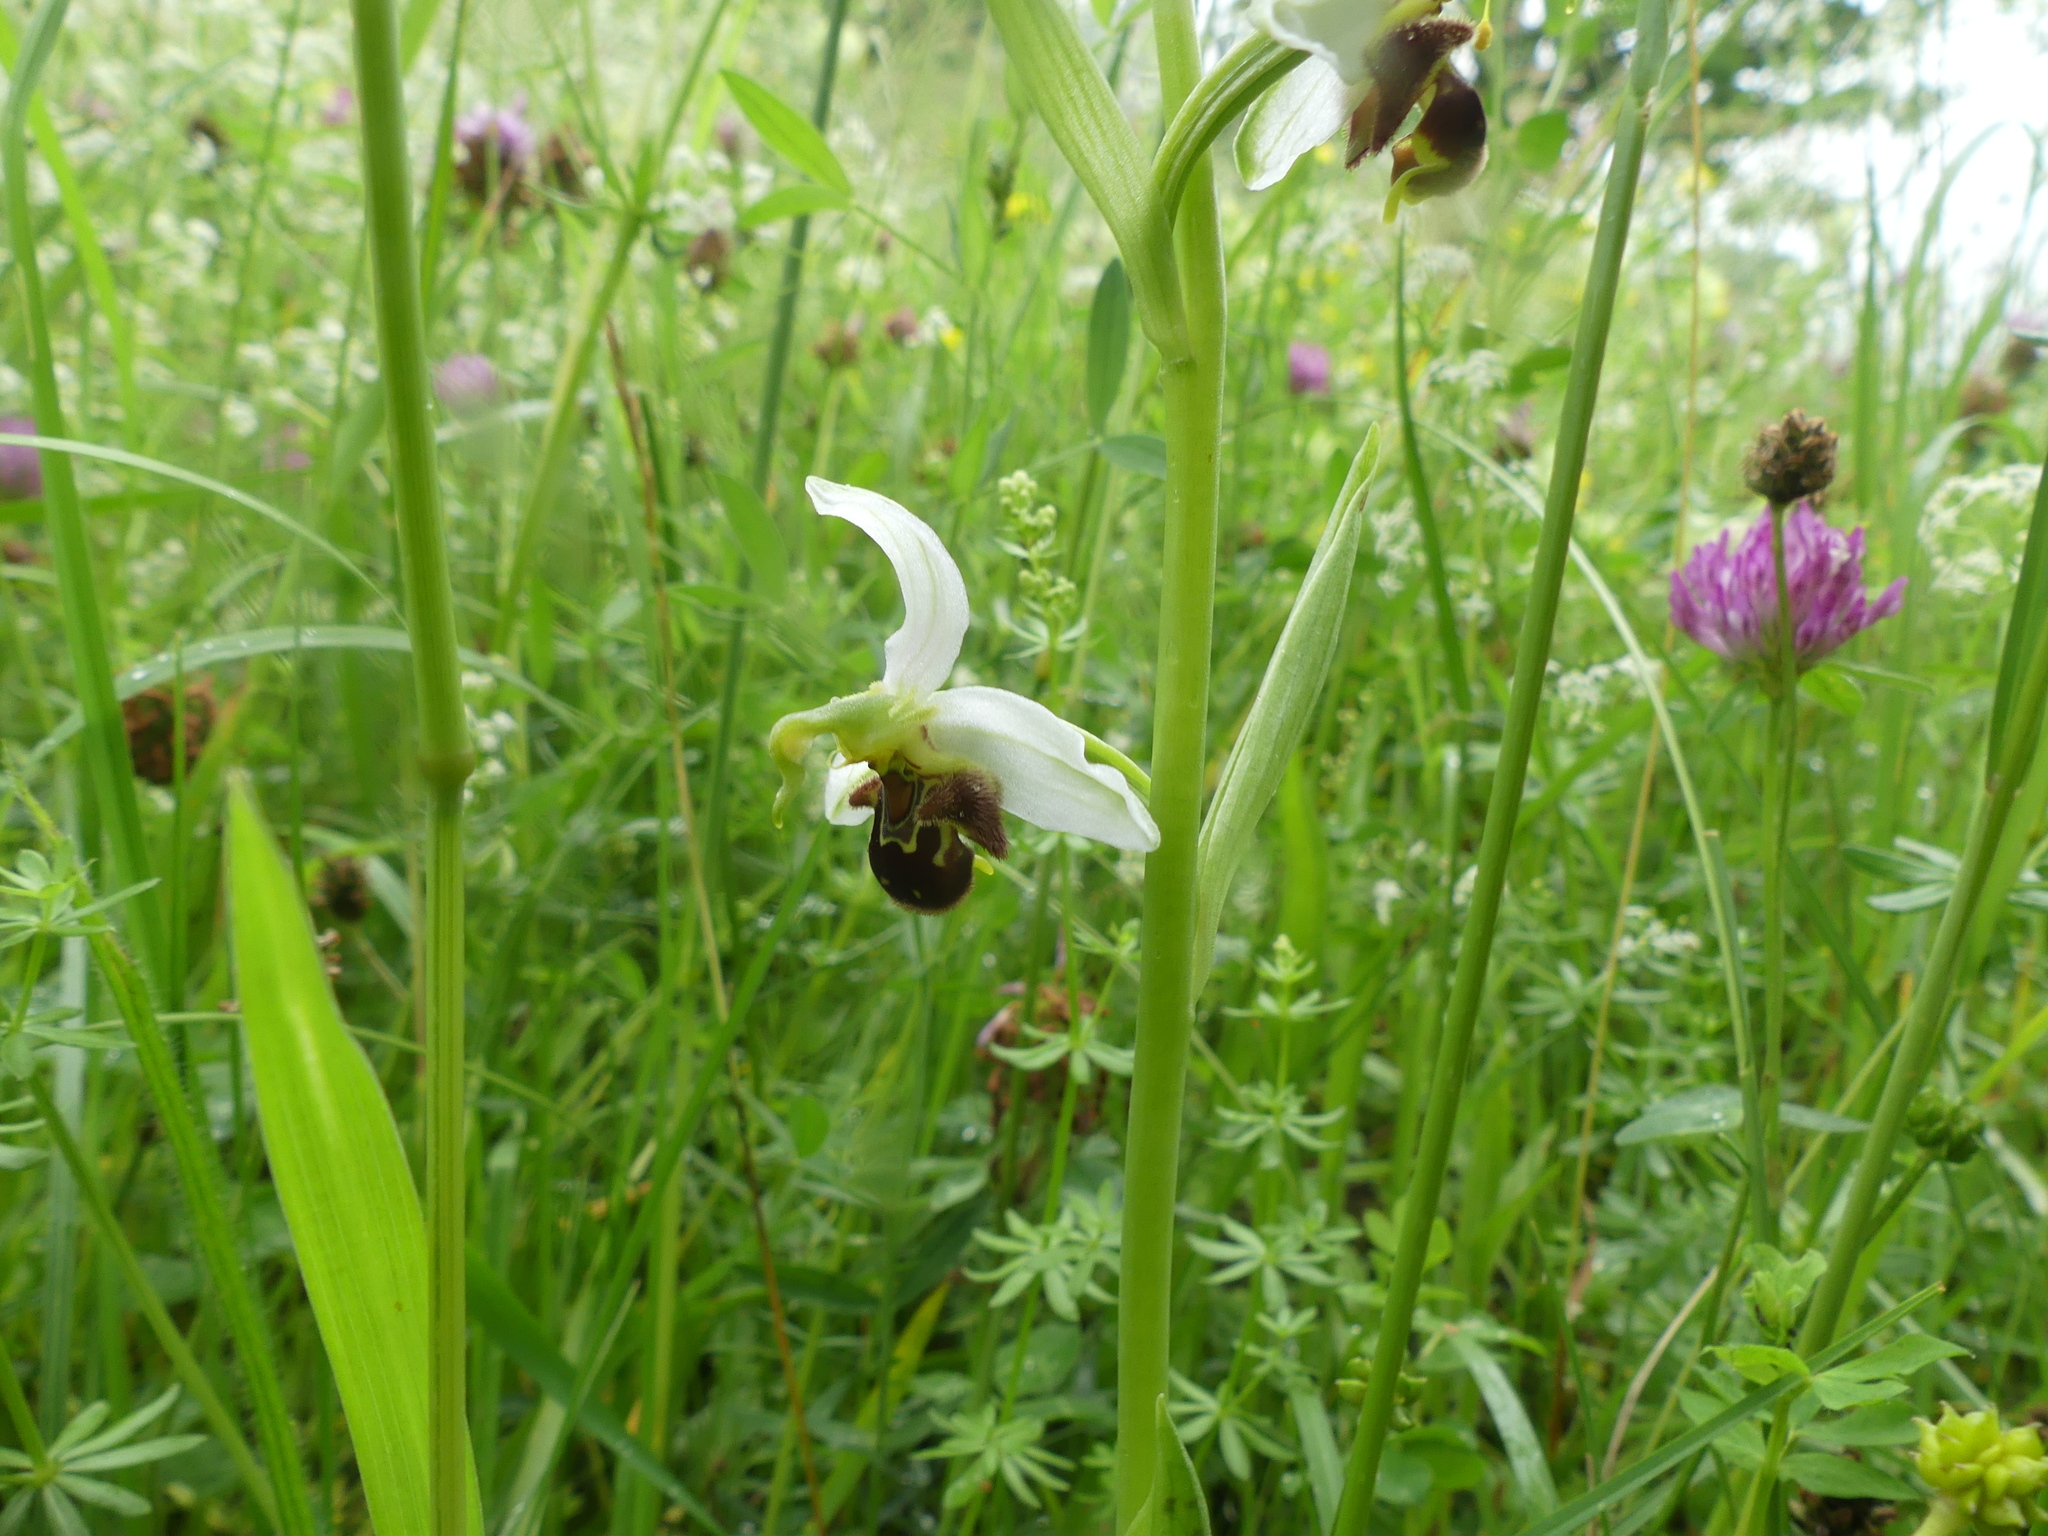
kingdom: Plantae
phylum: Tracheophyta
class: Liliopsida
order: Asparagales
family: Orchidaceae
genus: Ophrys
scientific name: Ophrys apifera
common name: Bee orchid
